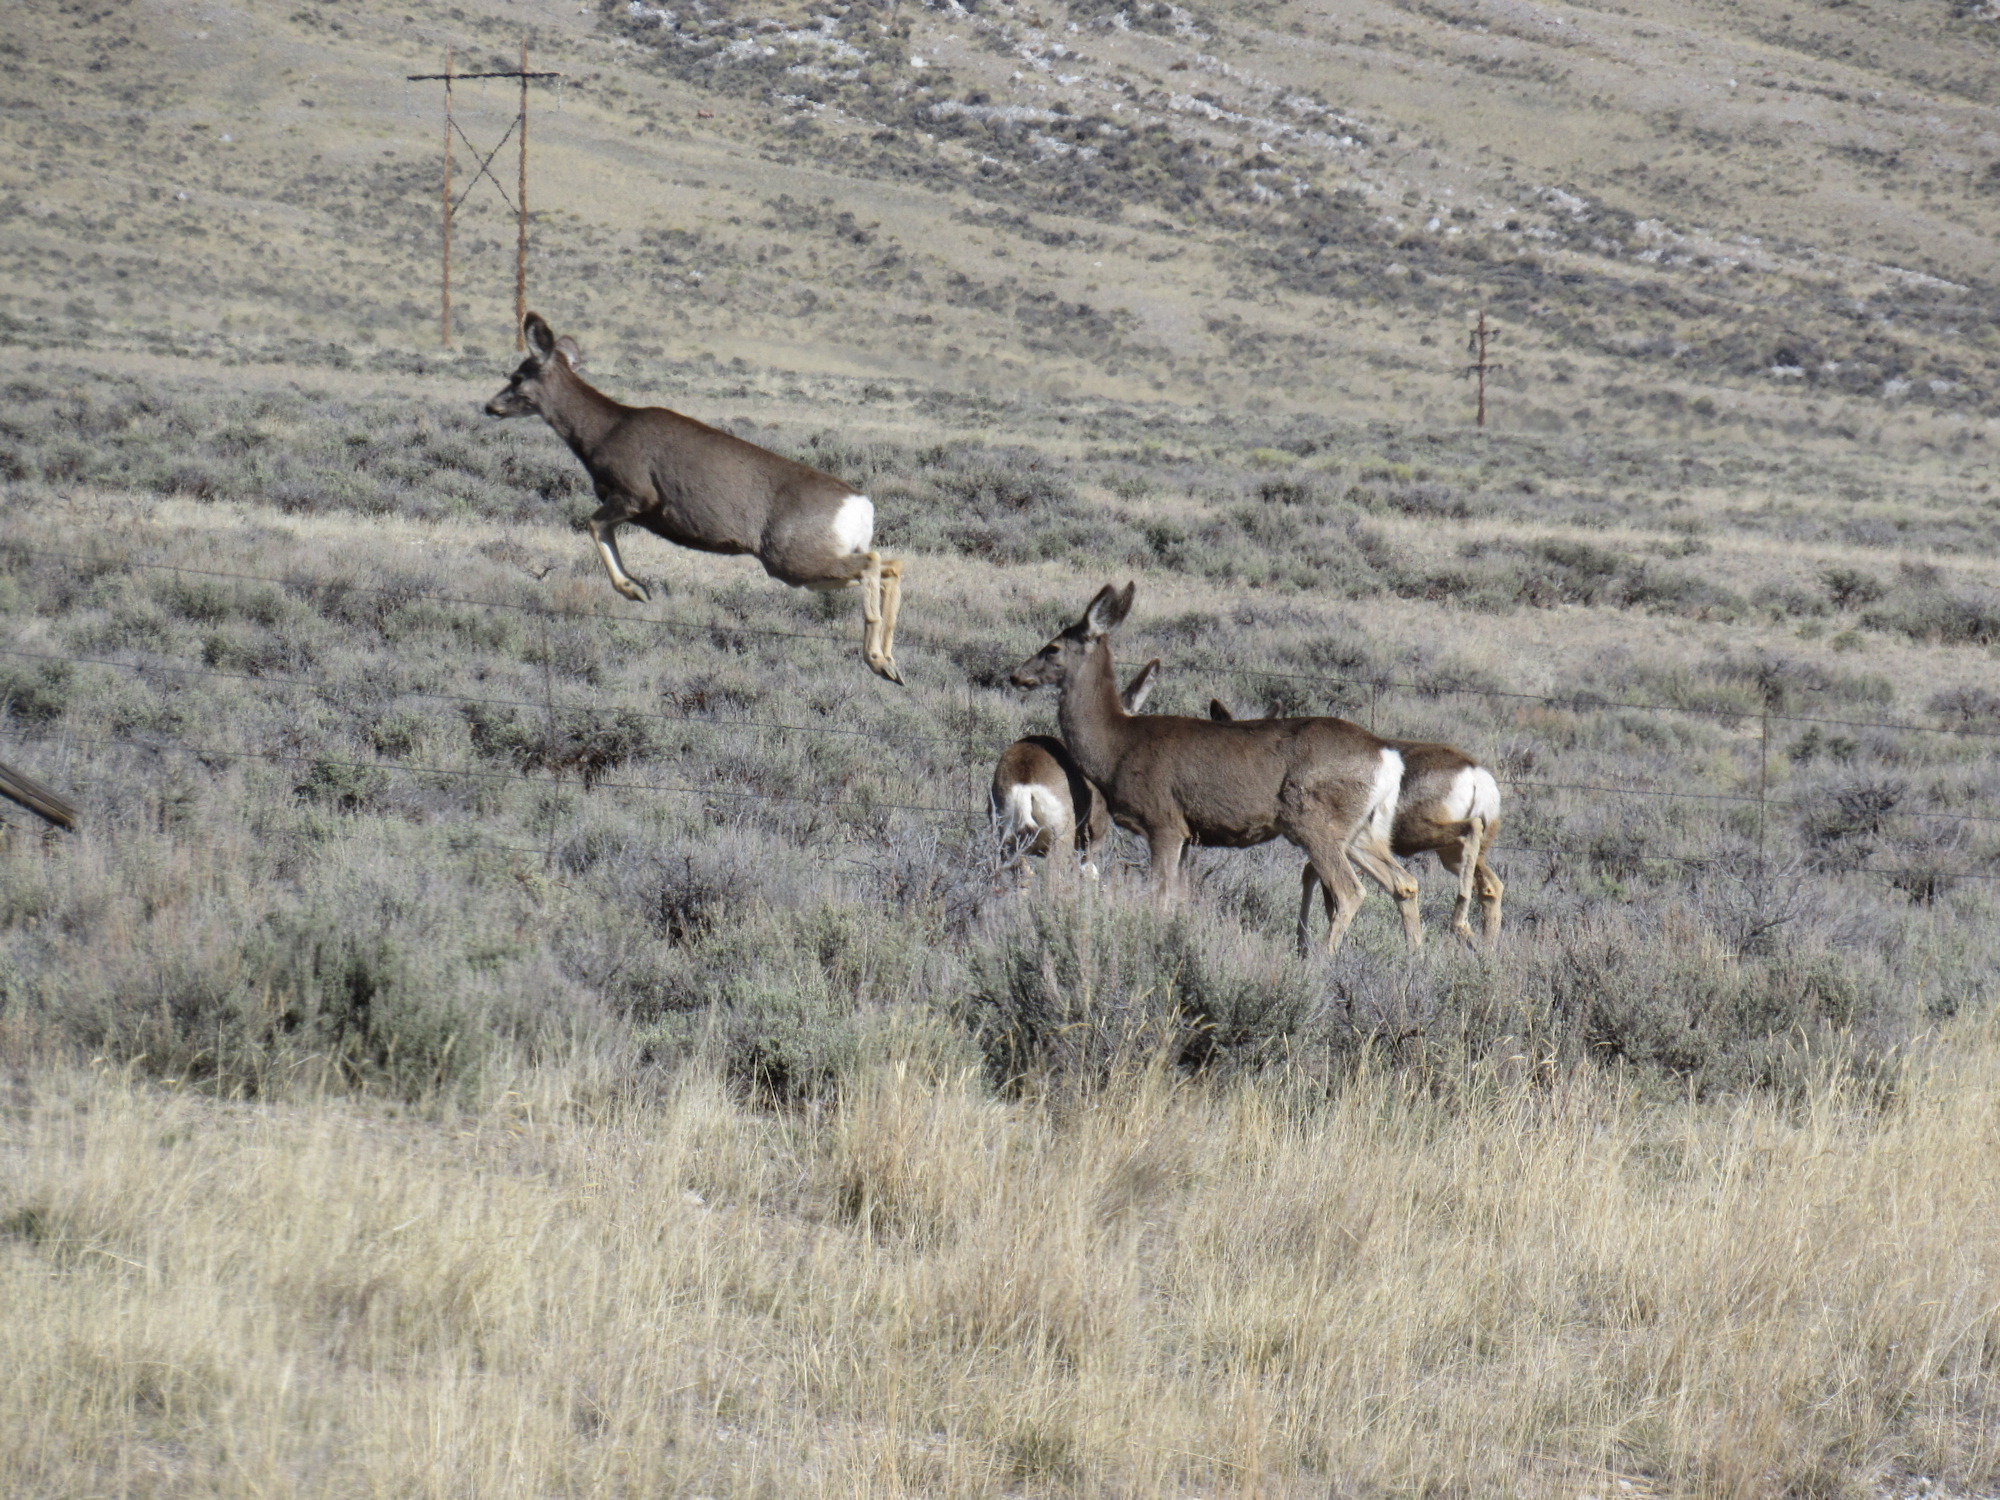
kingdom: Animalia
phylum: Chordata
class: Mammalia
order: Artiodactyla
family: Cervidae
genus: Odocoileus
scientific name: Odocoileus hemionus
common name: Mule deer
